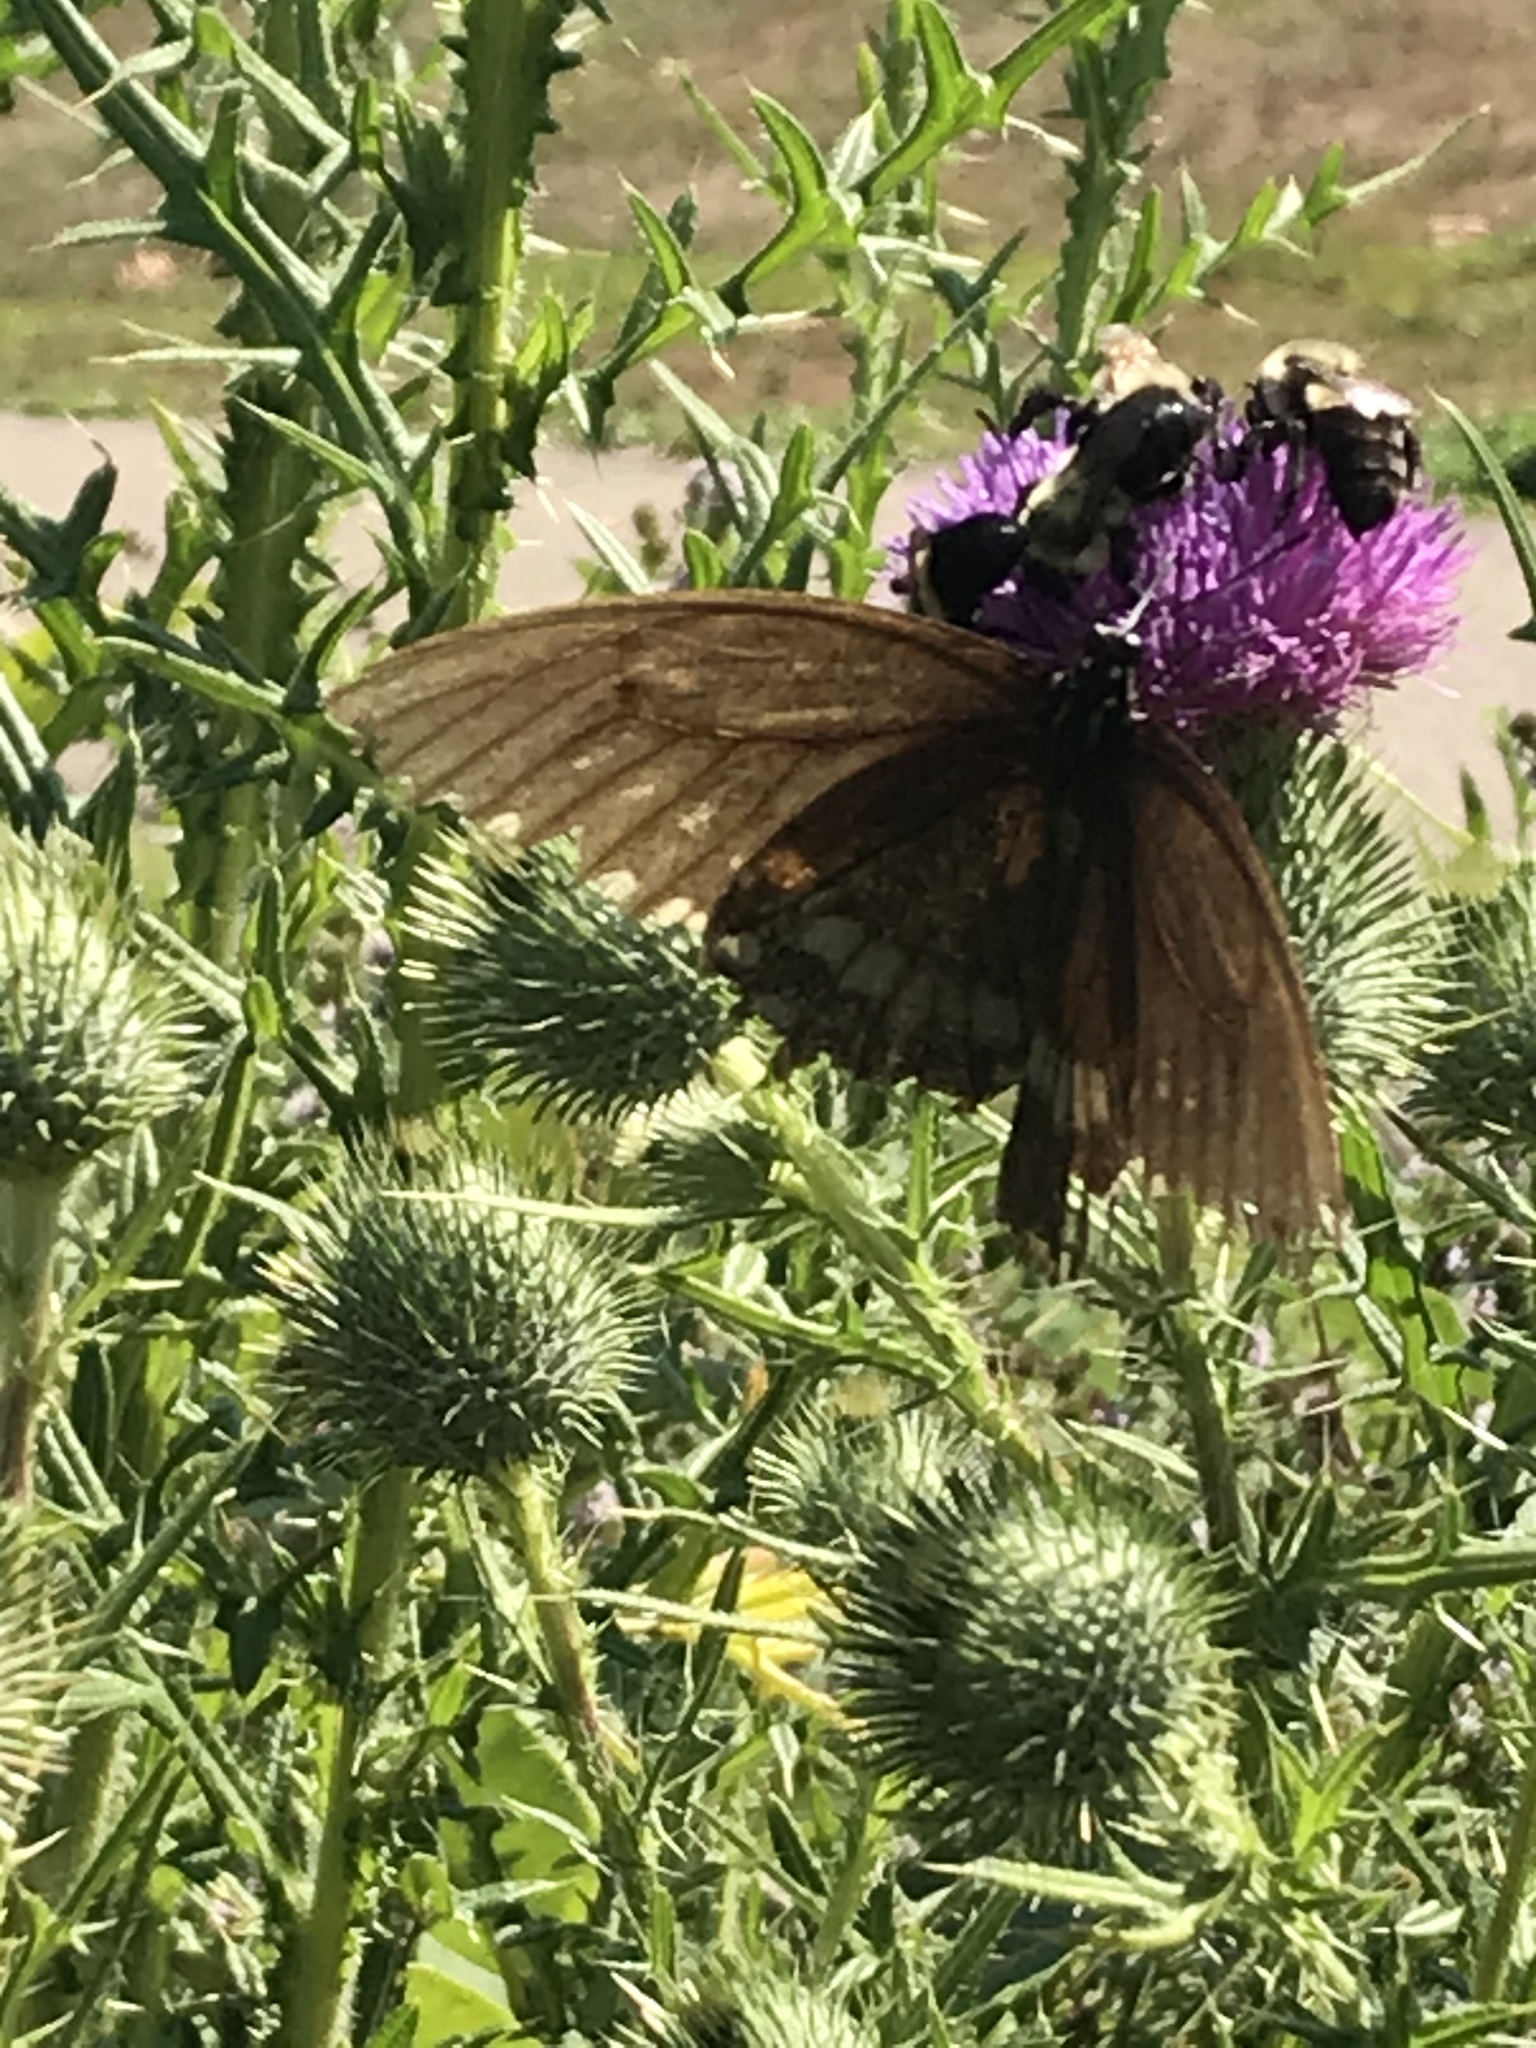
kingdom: Animalia
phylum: Arthropoda
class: Insecta
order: Lepidoptera
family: Papilionidae
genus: Papilio
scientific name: Papilio troilus
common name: Spicebush swallowtail
